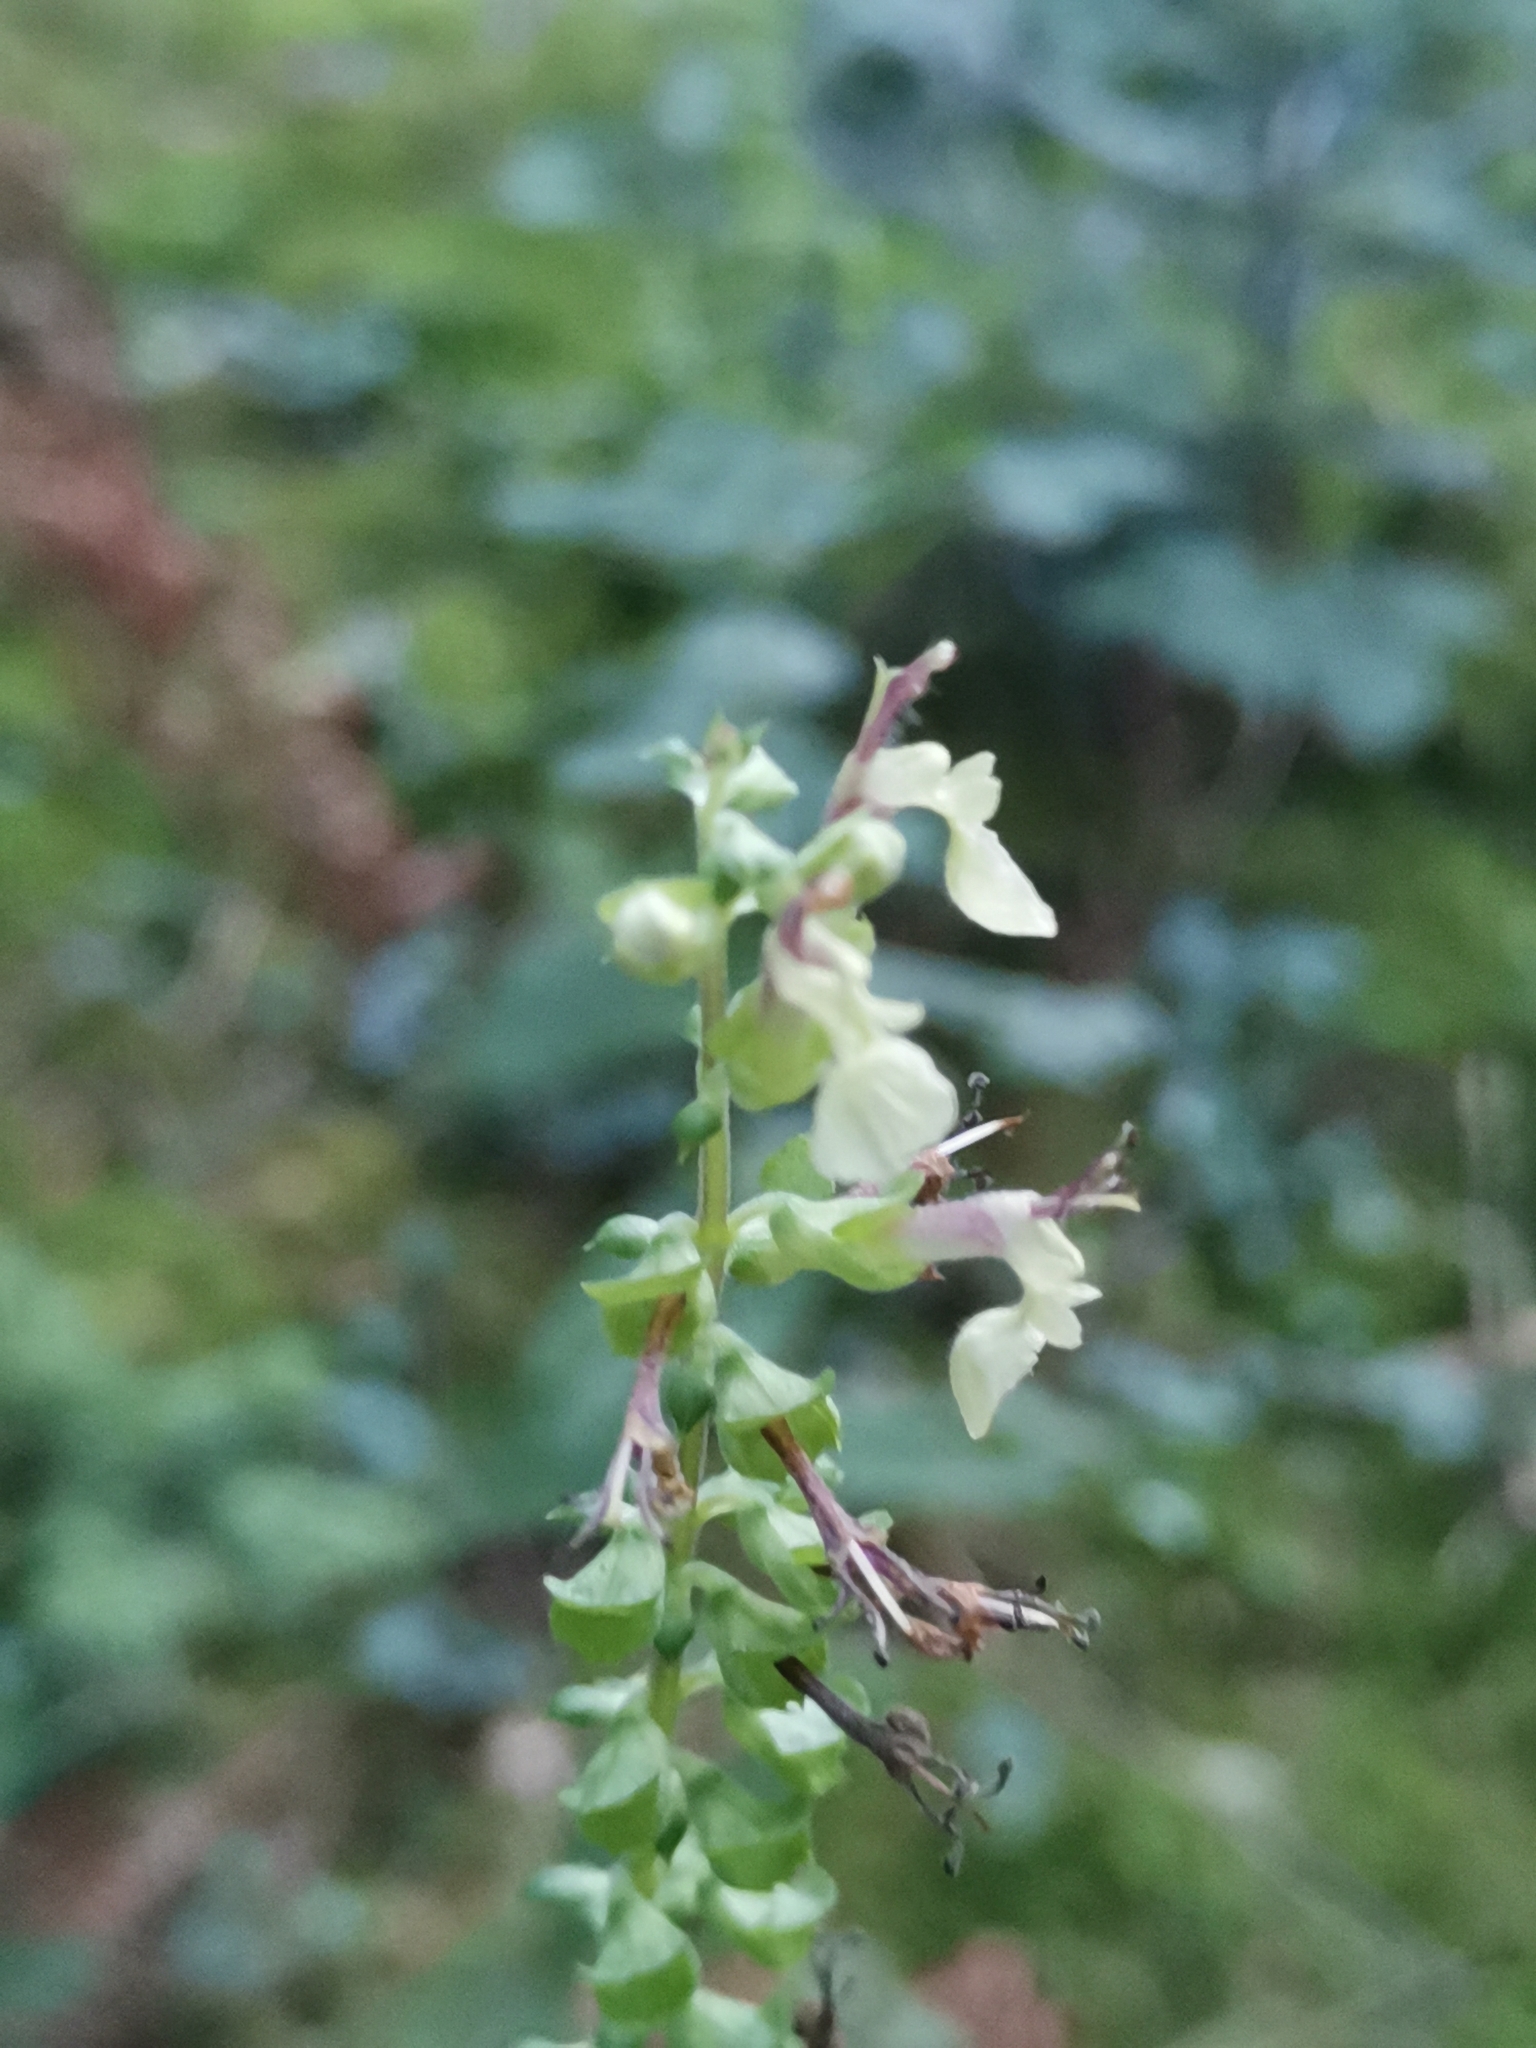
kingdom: Plantae
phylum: Tracheophyta
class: Magnoliopsida
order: Lamiales
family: Lamiaceae
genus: Teucrium
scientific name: Teucrium scorodonia
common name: Woodland germander
